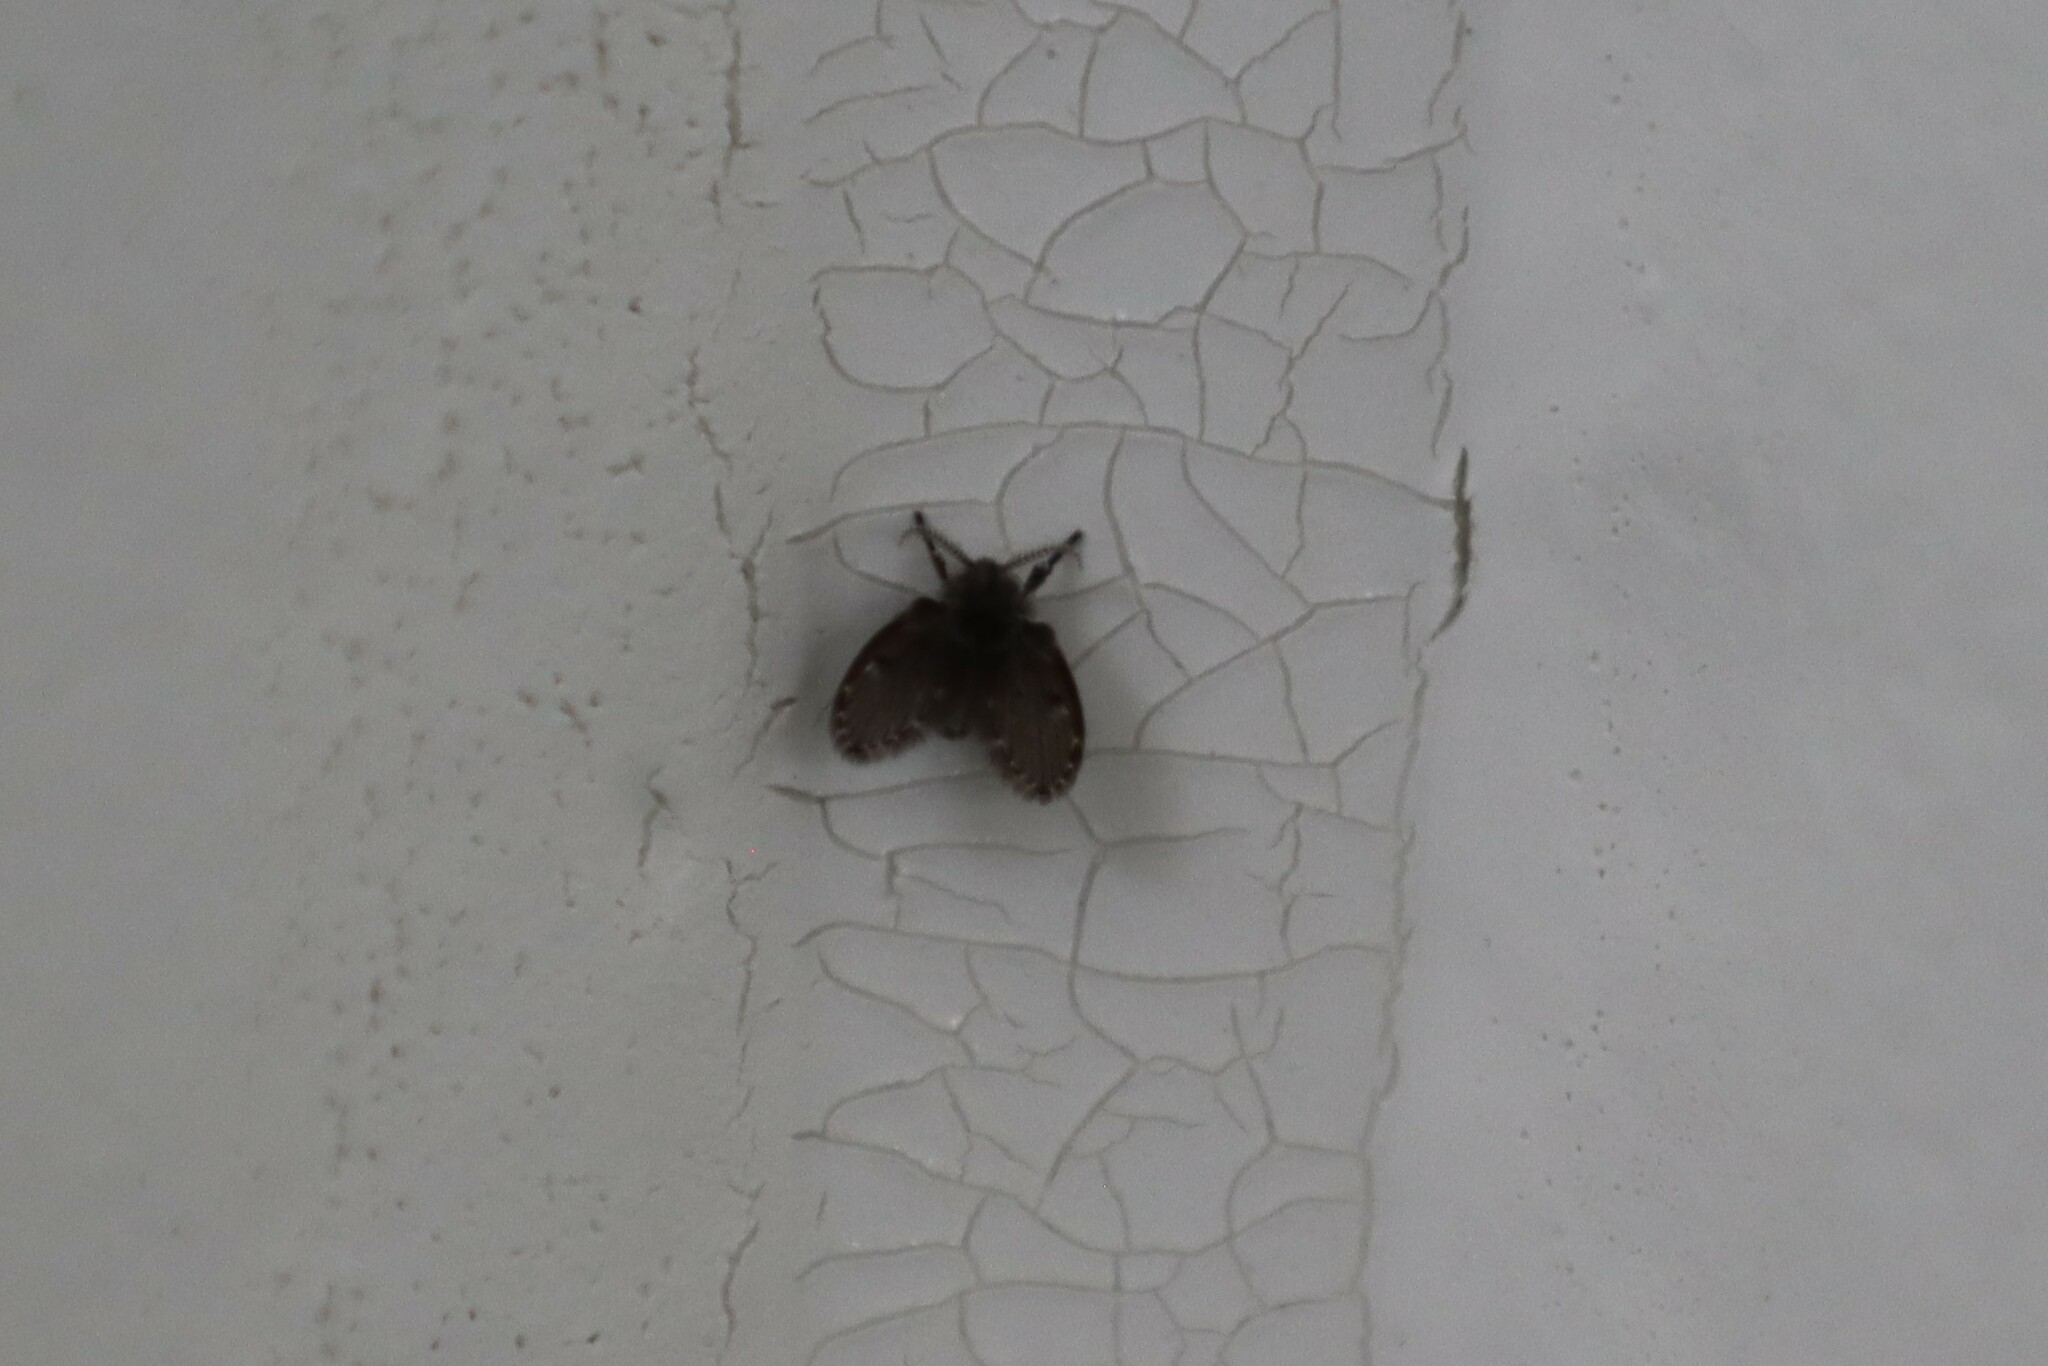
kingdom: Animalia
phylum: Arthropoda
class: Insecta
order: Diptera
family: Psychodidae
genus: Clogmia
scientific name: Clogmia albipunctatus
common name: White-spotted moth fly
